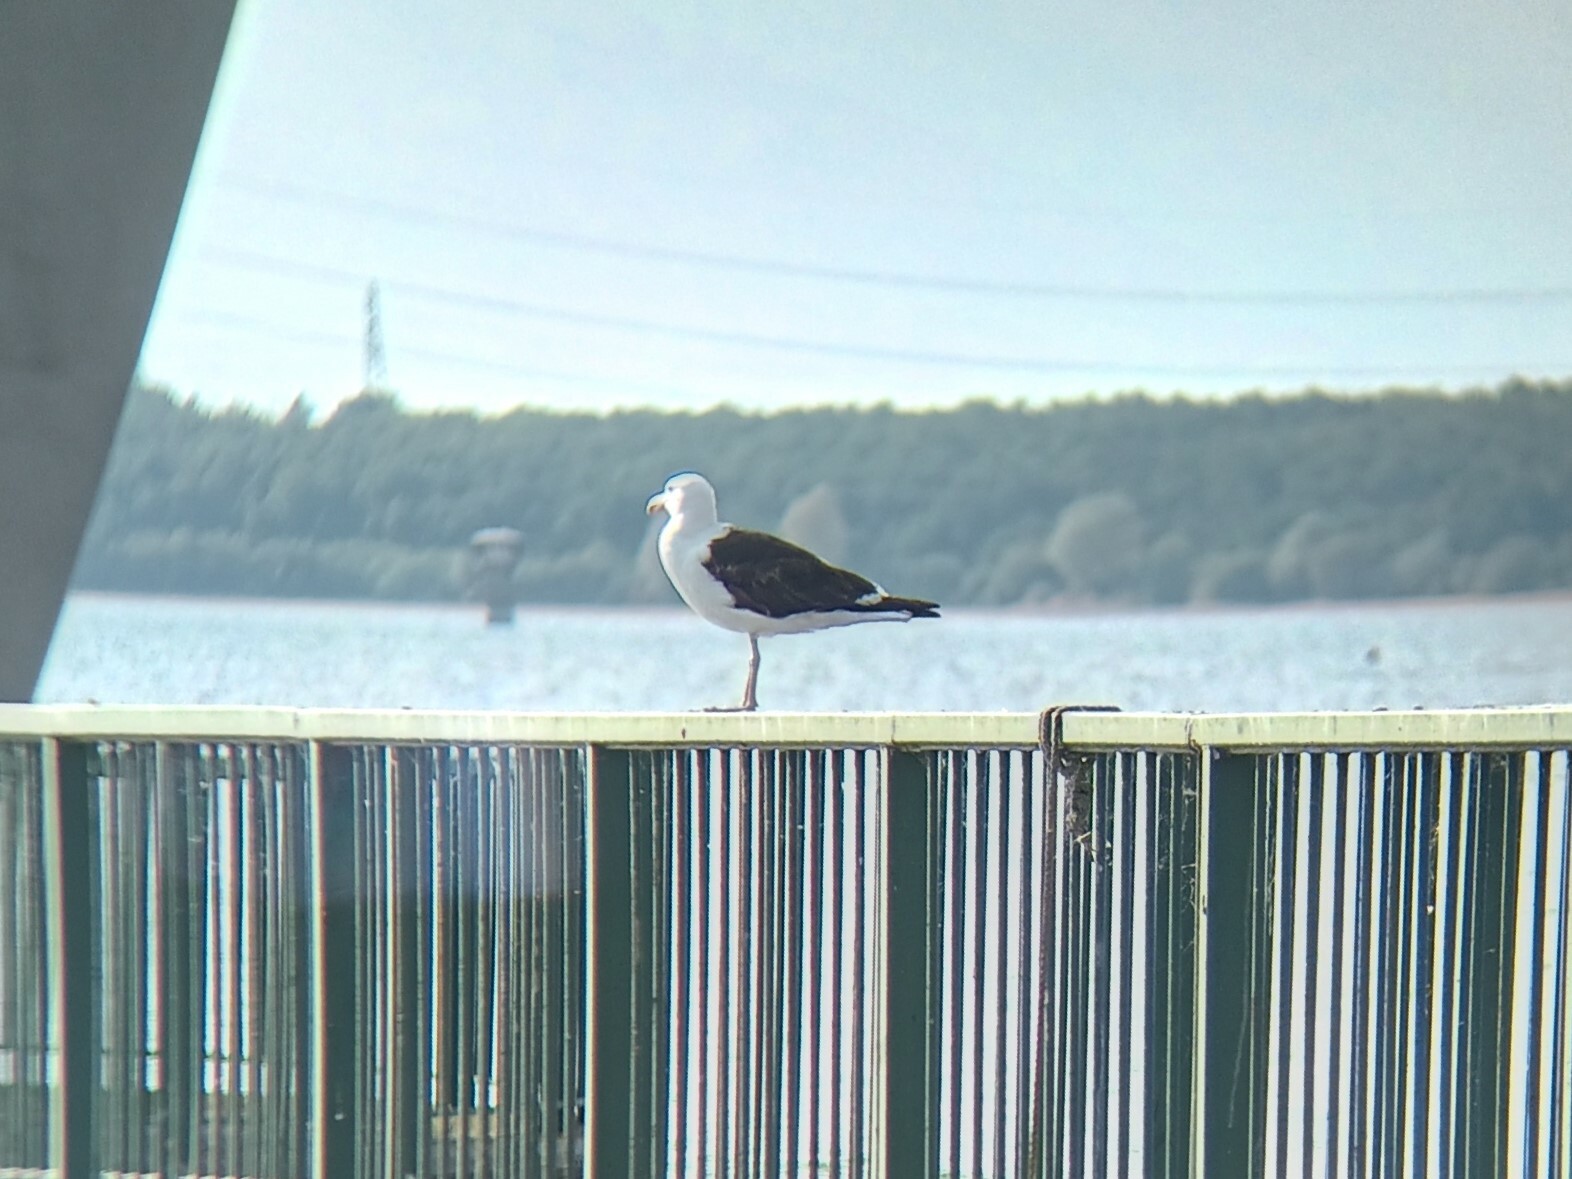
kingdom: Animalia
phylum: Chordata
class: Aves
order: Charadriiformes
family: Laridae
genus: Larus
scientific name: Larus dominicanus
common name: Kelp gull
